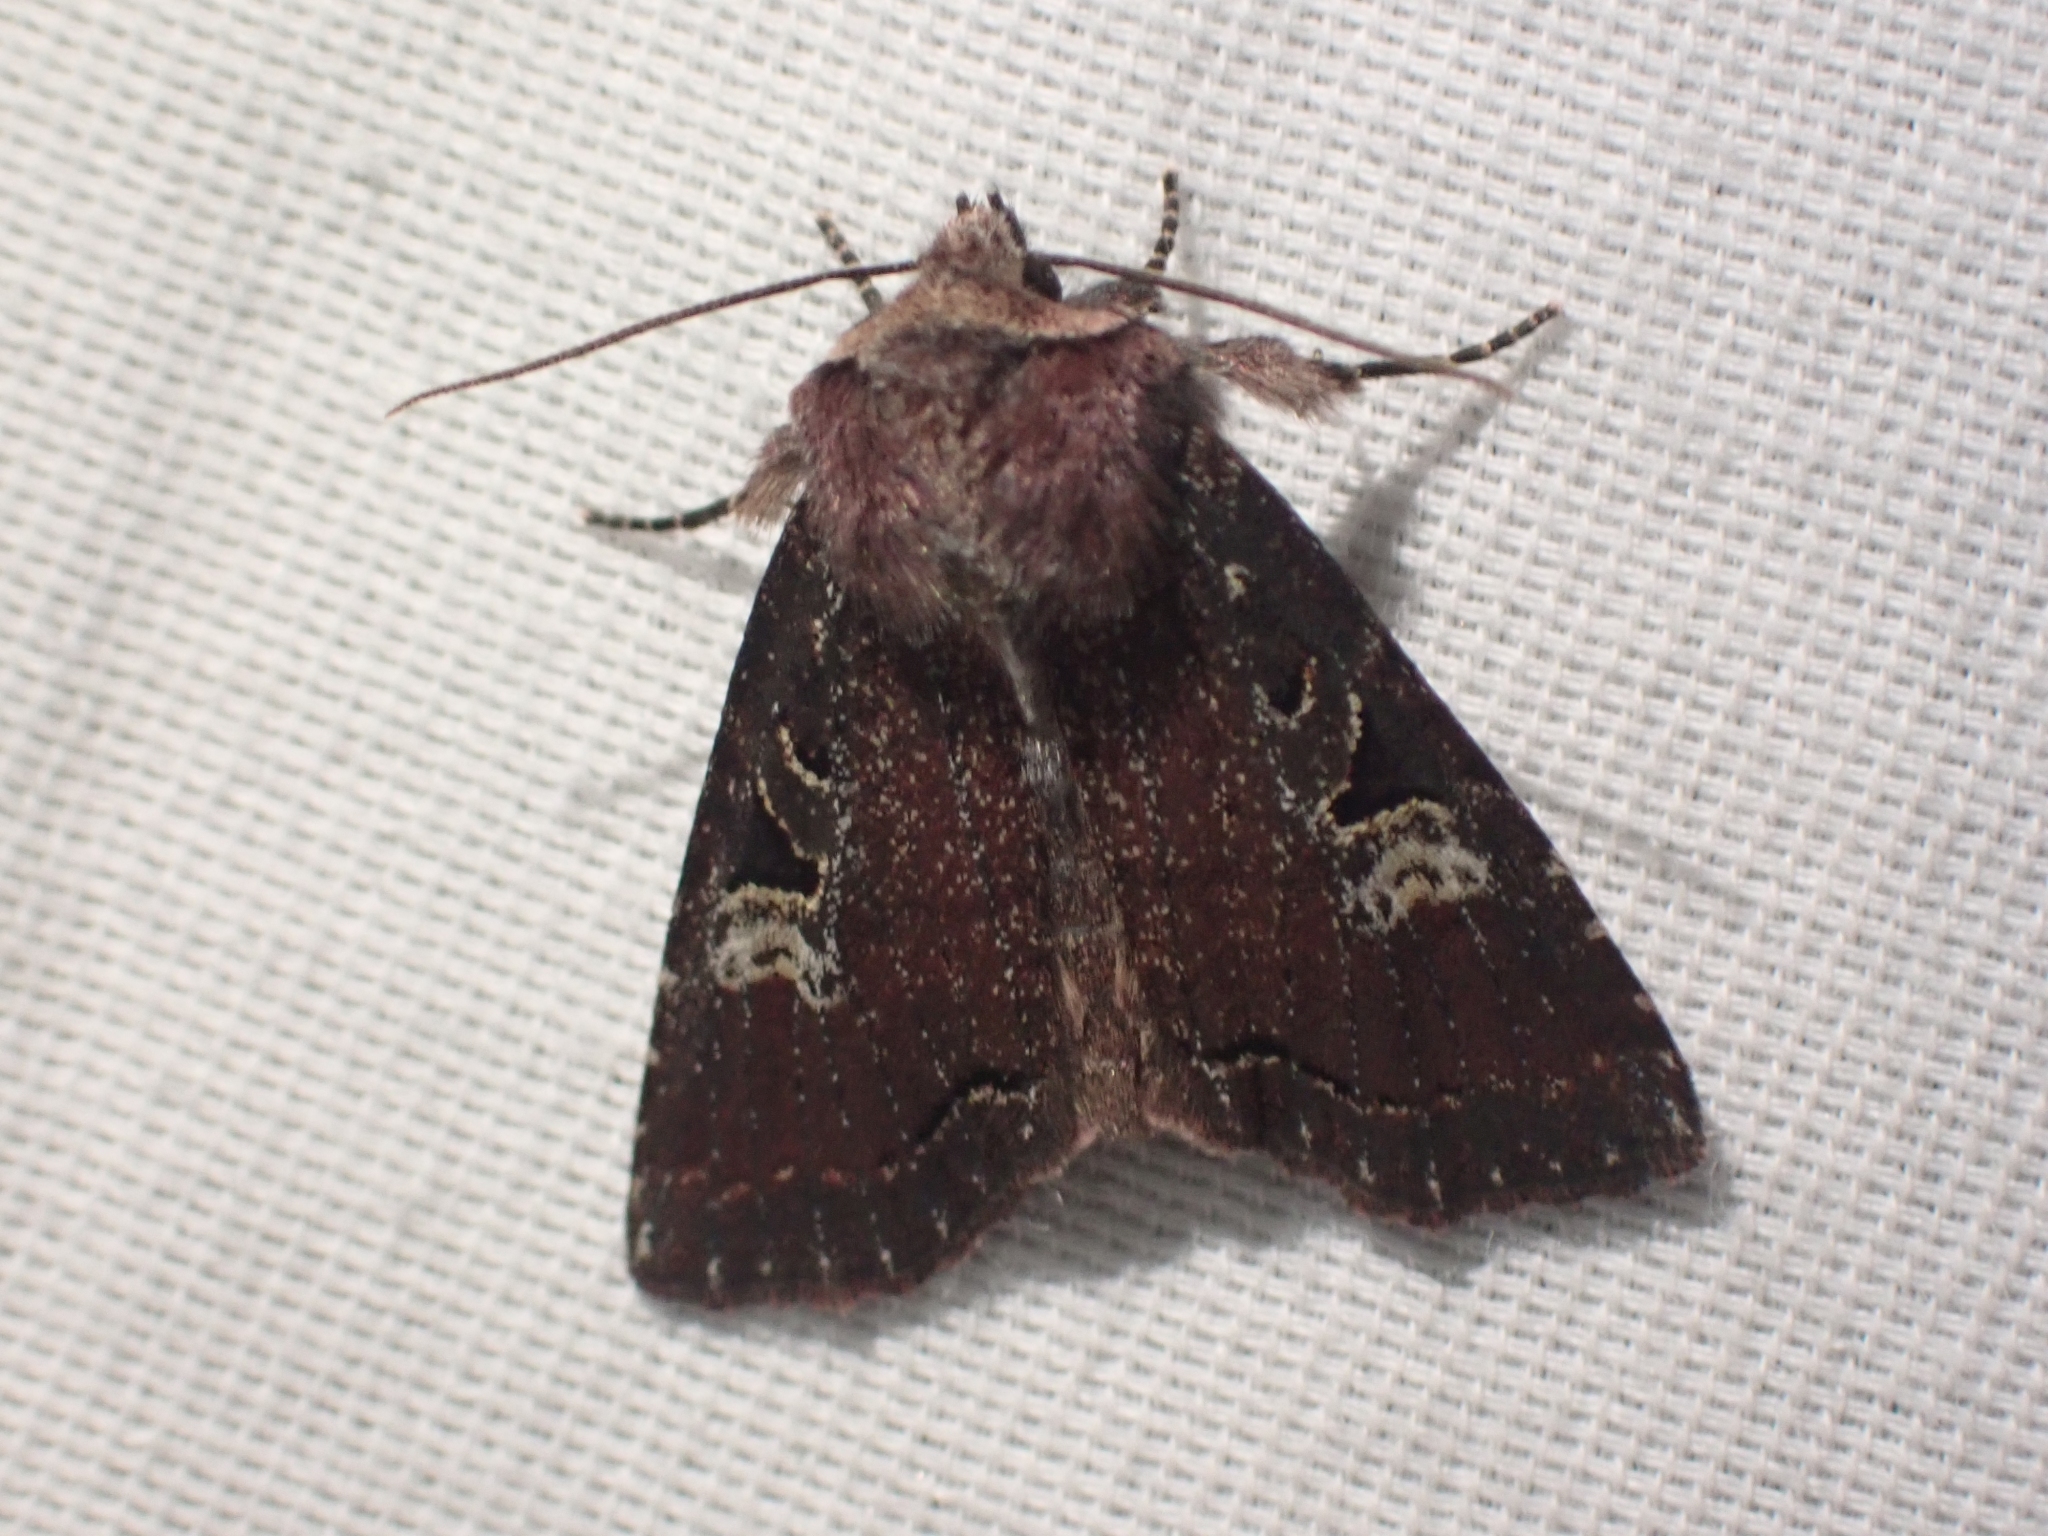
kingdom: Animalia
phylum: Arthropoda
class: Insecta
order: Lepidoptera
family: Noctuidae
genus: Hillia
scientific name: Hillia iris
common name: Iris rover moth
